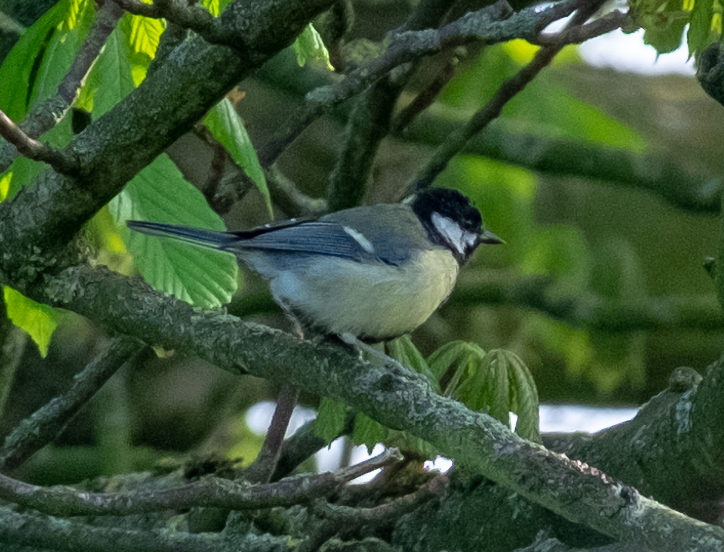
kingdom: Animalia
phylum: Chordata
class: Aves
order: Passeriformes
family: Paridae
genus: Parus
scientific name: Parus major
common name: Great tit
